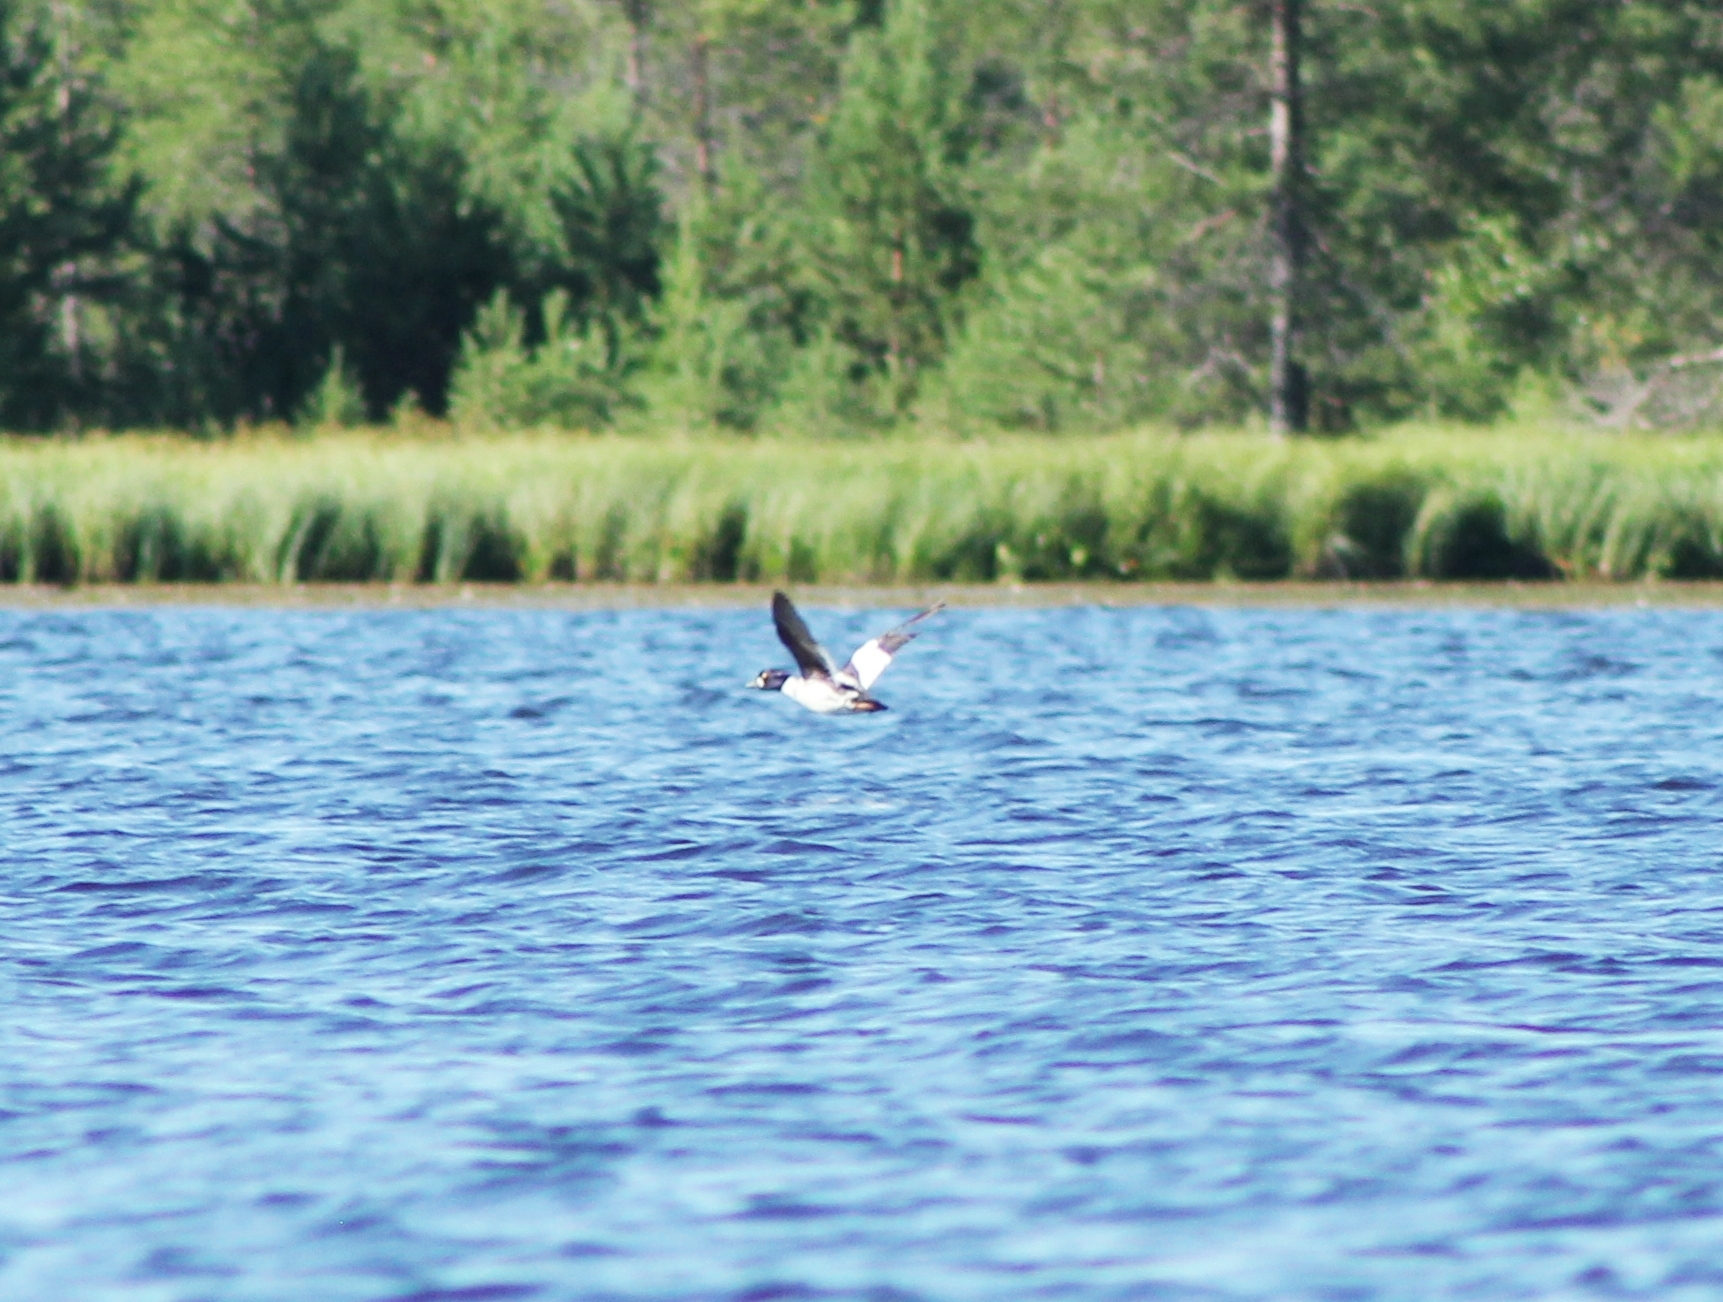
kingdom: Animalia
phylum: Chordata
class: Aves
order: Anseriformes
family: Anatidae
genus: Bucephala
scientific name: Bucephala clangula
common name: Common goldeneye
